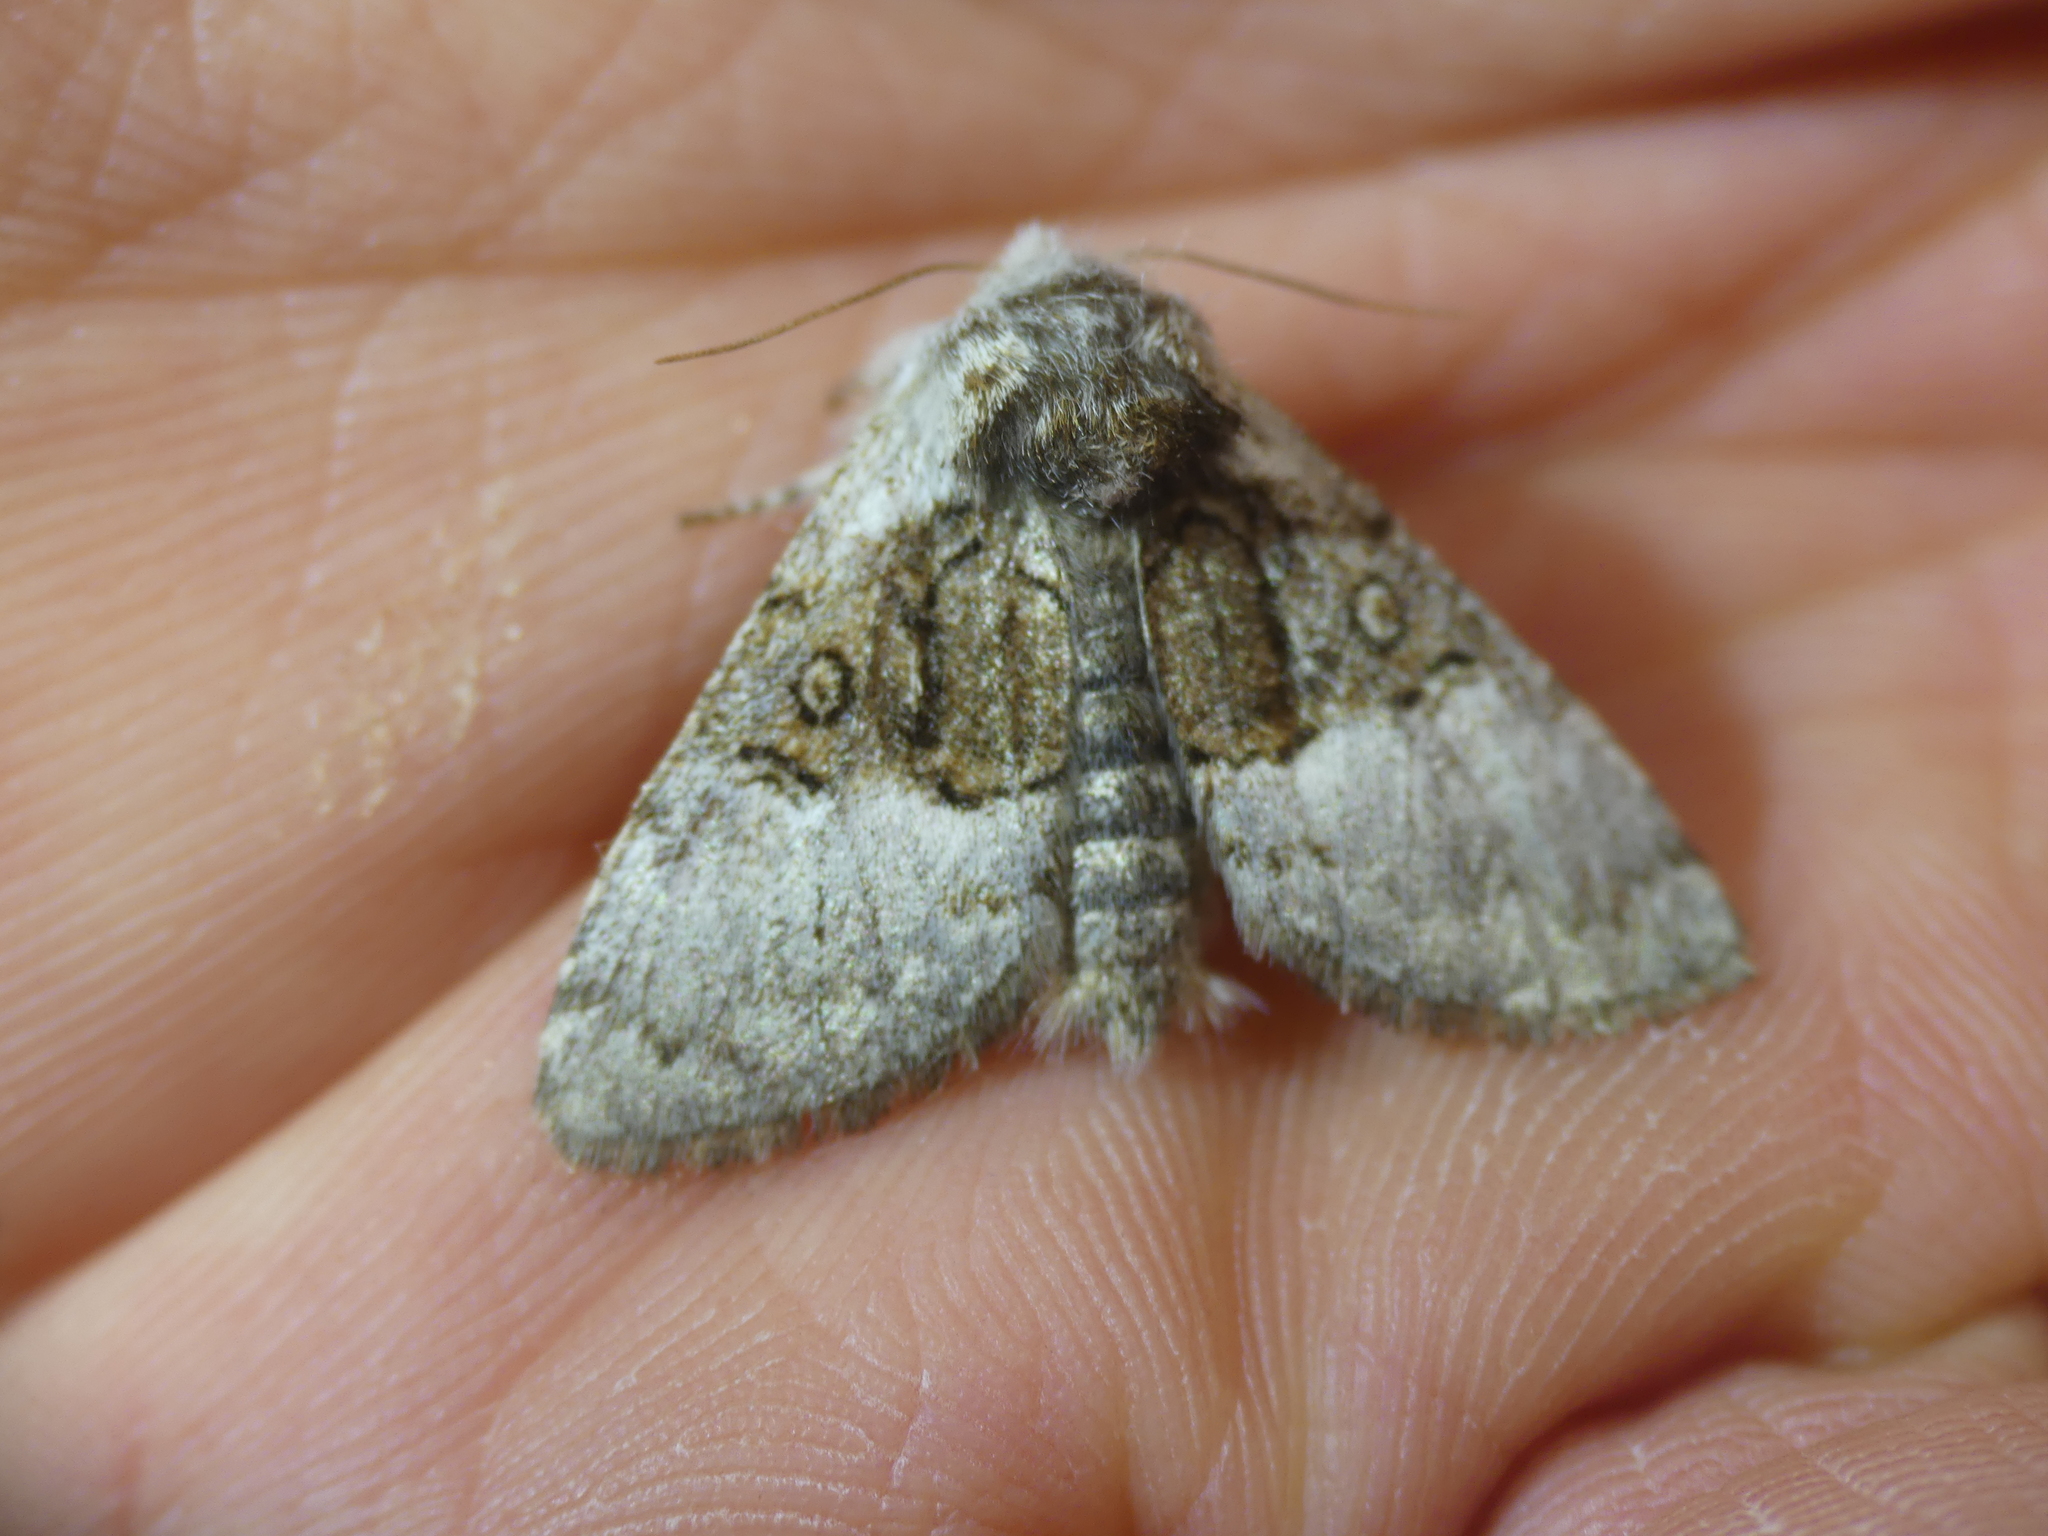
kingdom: Animalia
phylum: Arthropoda
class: Insecta
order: Lepidoptera
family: Noctuidae
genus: Colocasia
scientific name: Colocasia coryli
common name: Nut-tree tussock
